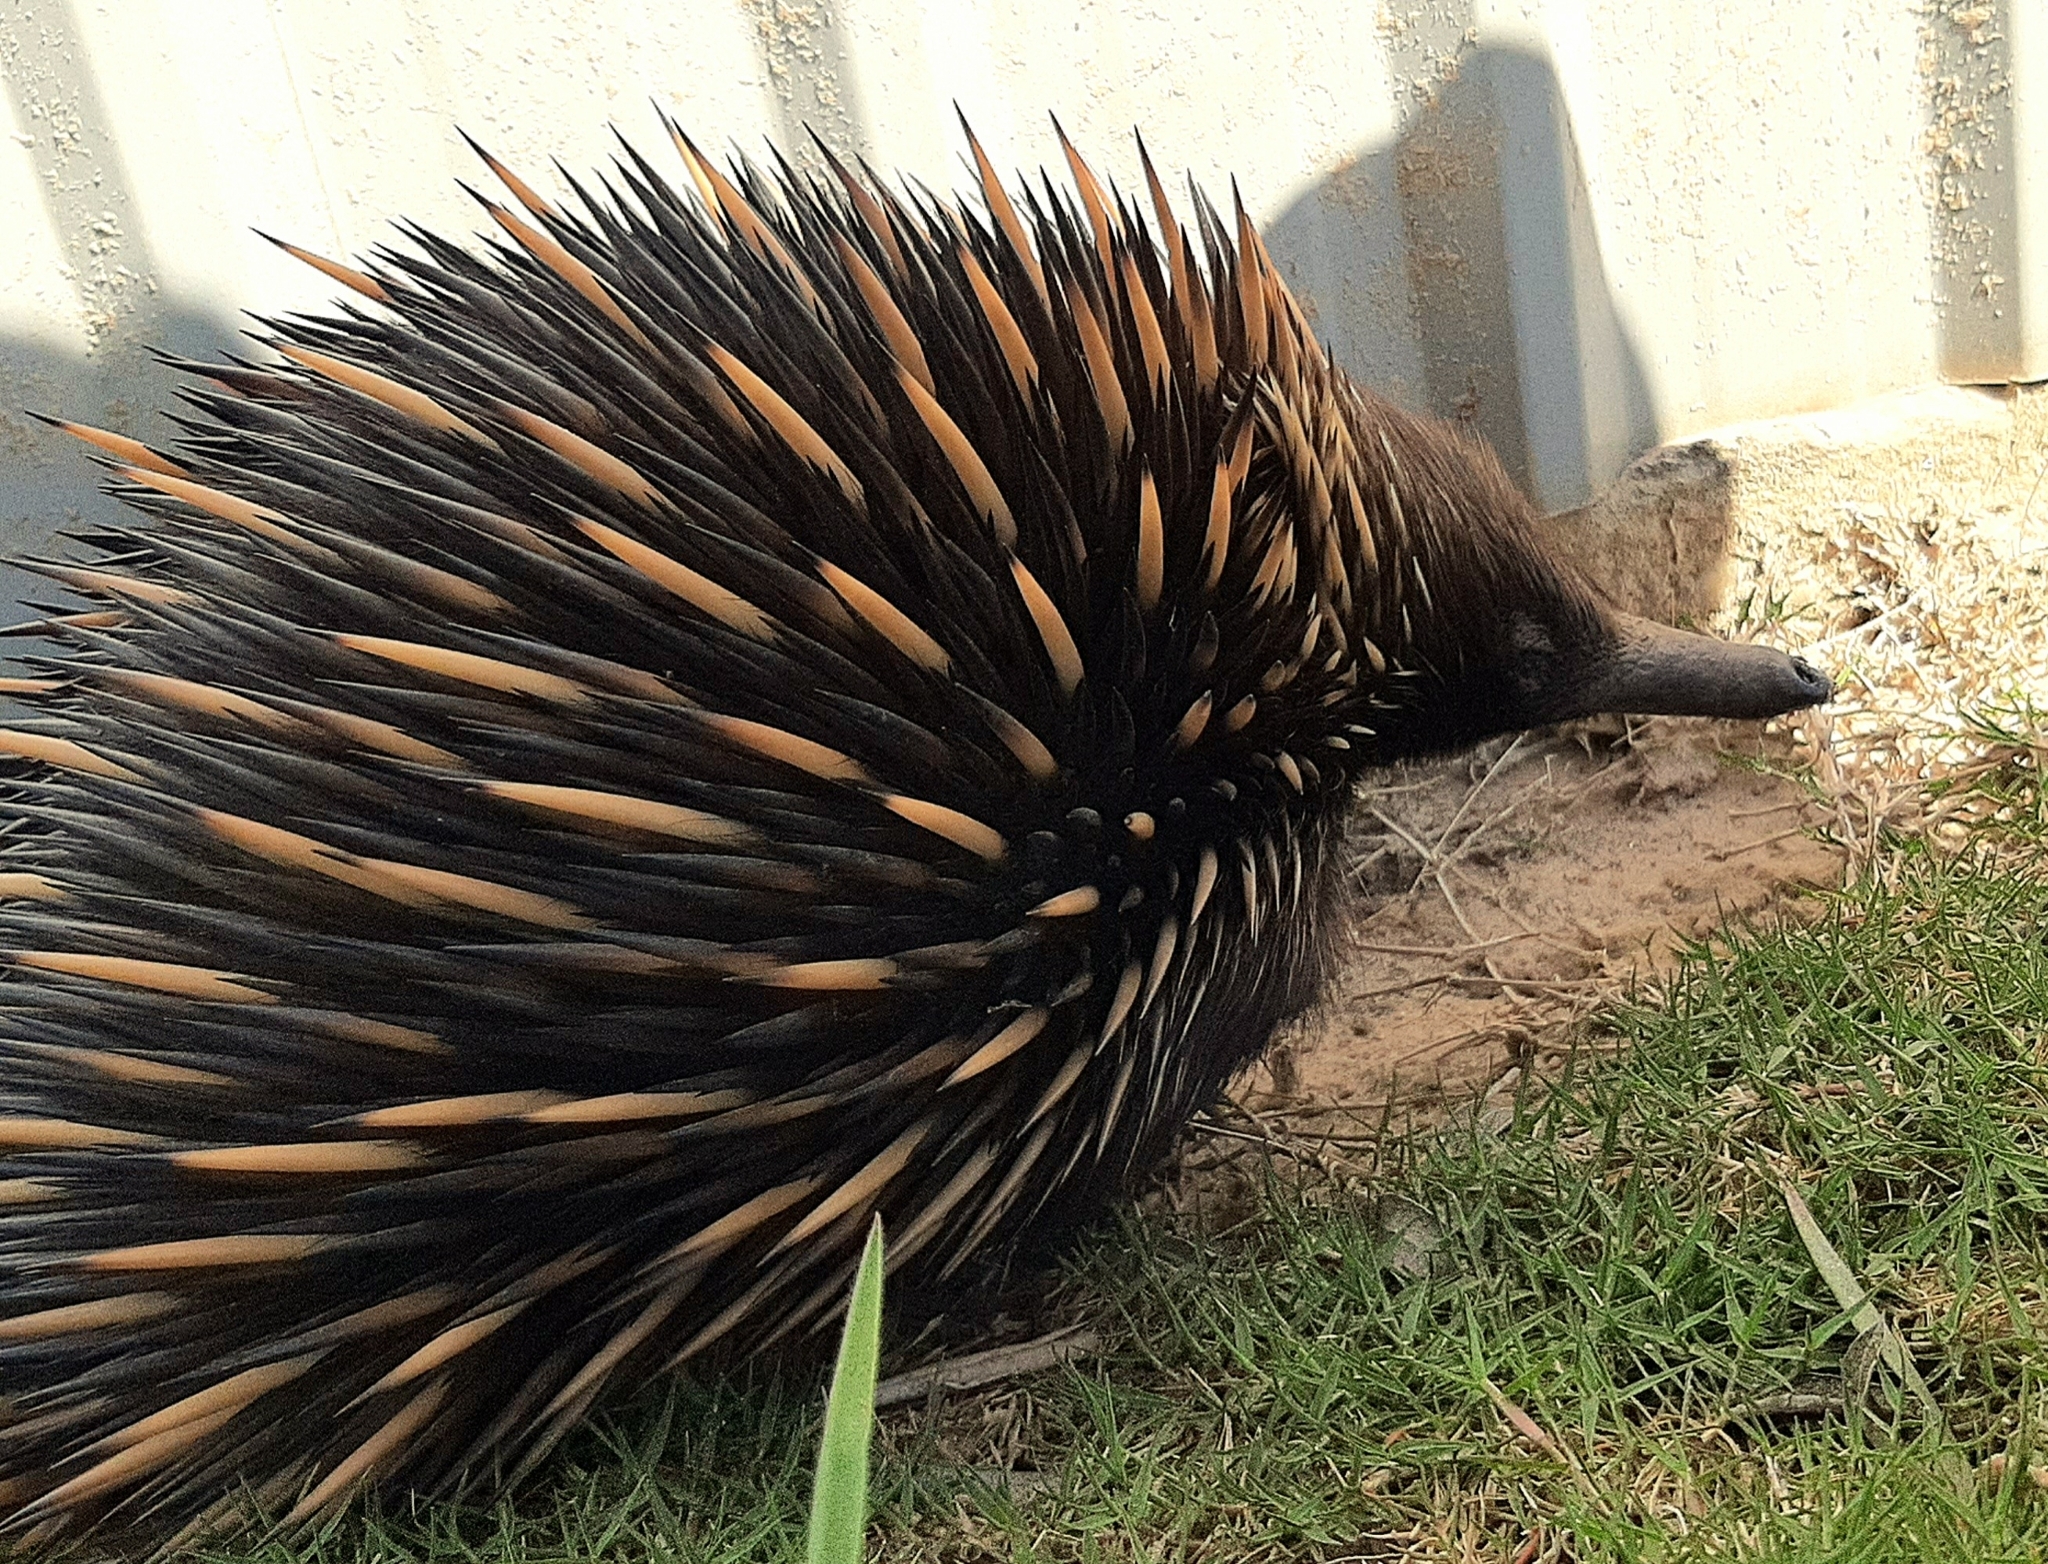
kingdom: Animalia
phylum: Chordata
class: Mammalia
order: Monotremata
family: Tachyglossidae
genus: Tachyglossus
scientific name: Tachyglossus aculeatus
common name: Short-beaked echidna
